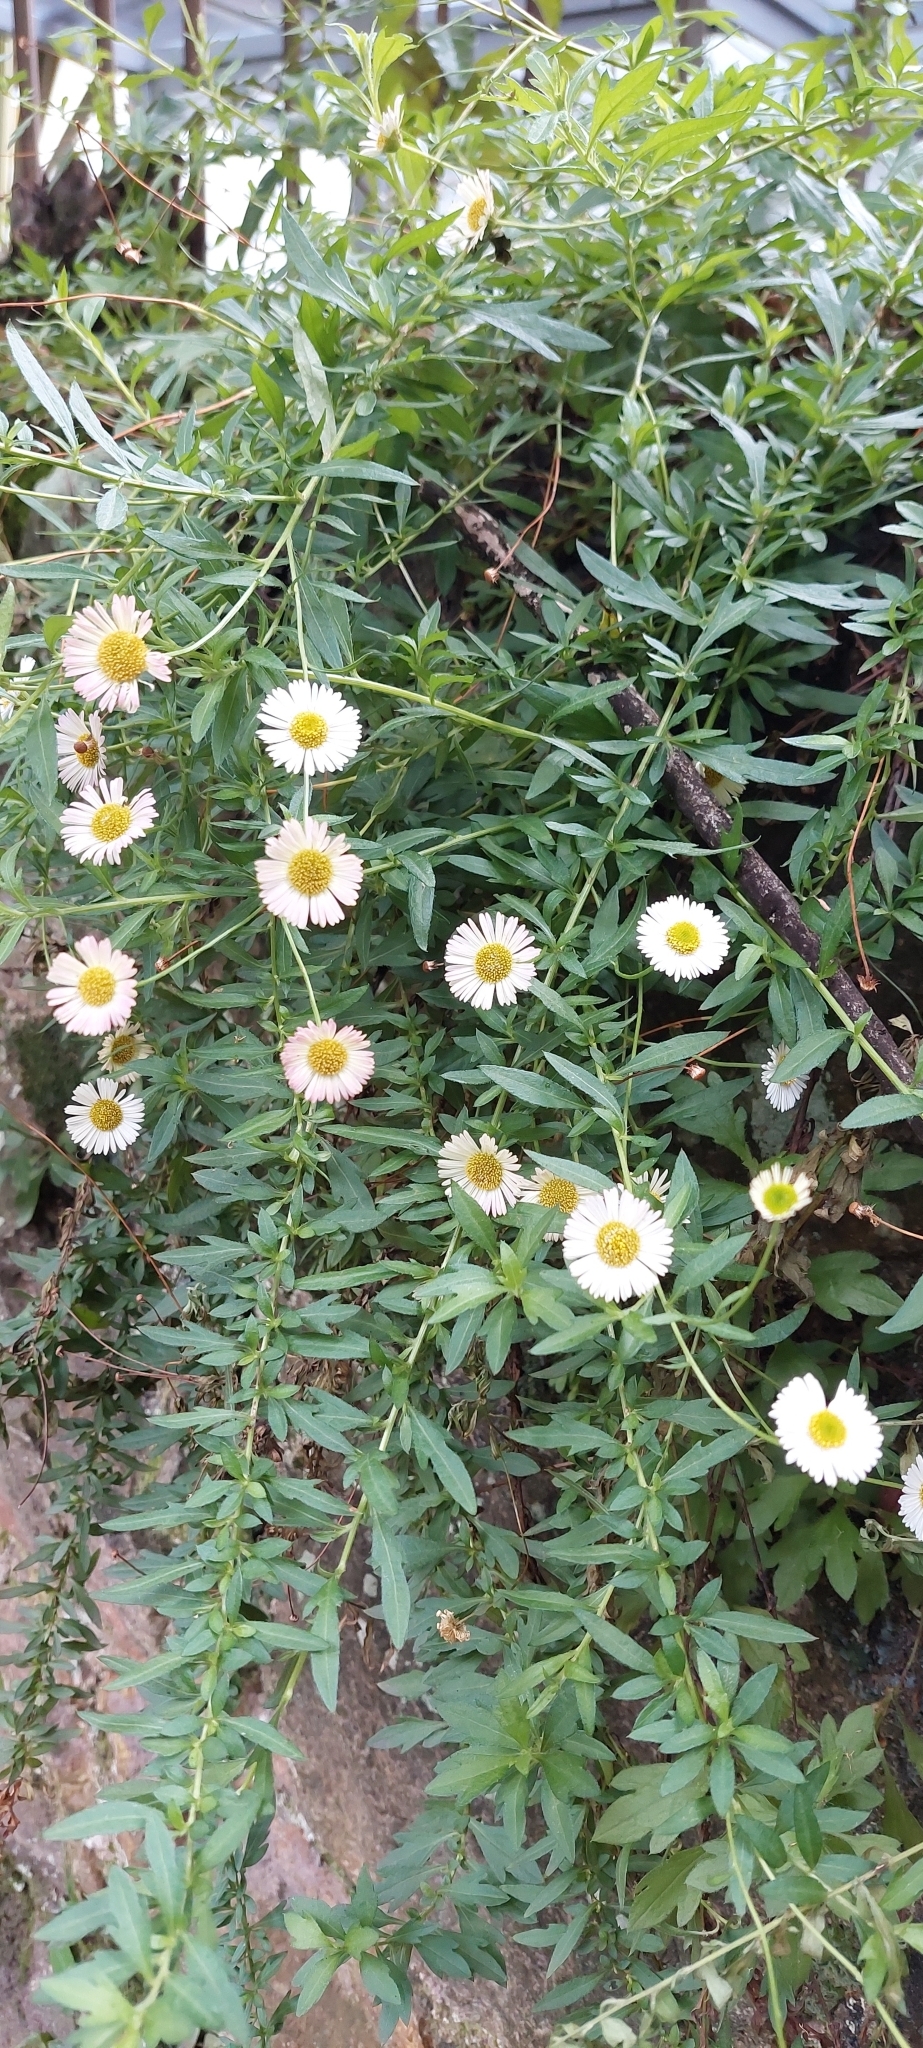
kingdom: Plantae
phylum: Tracheophyta
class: Magnoliopsida
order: Asterales
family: Asteraceae
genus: Erigeron
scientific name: Erigeron karvinskianus
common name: Mexican fleabane
